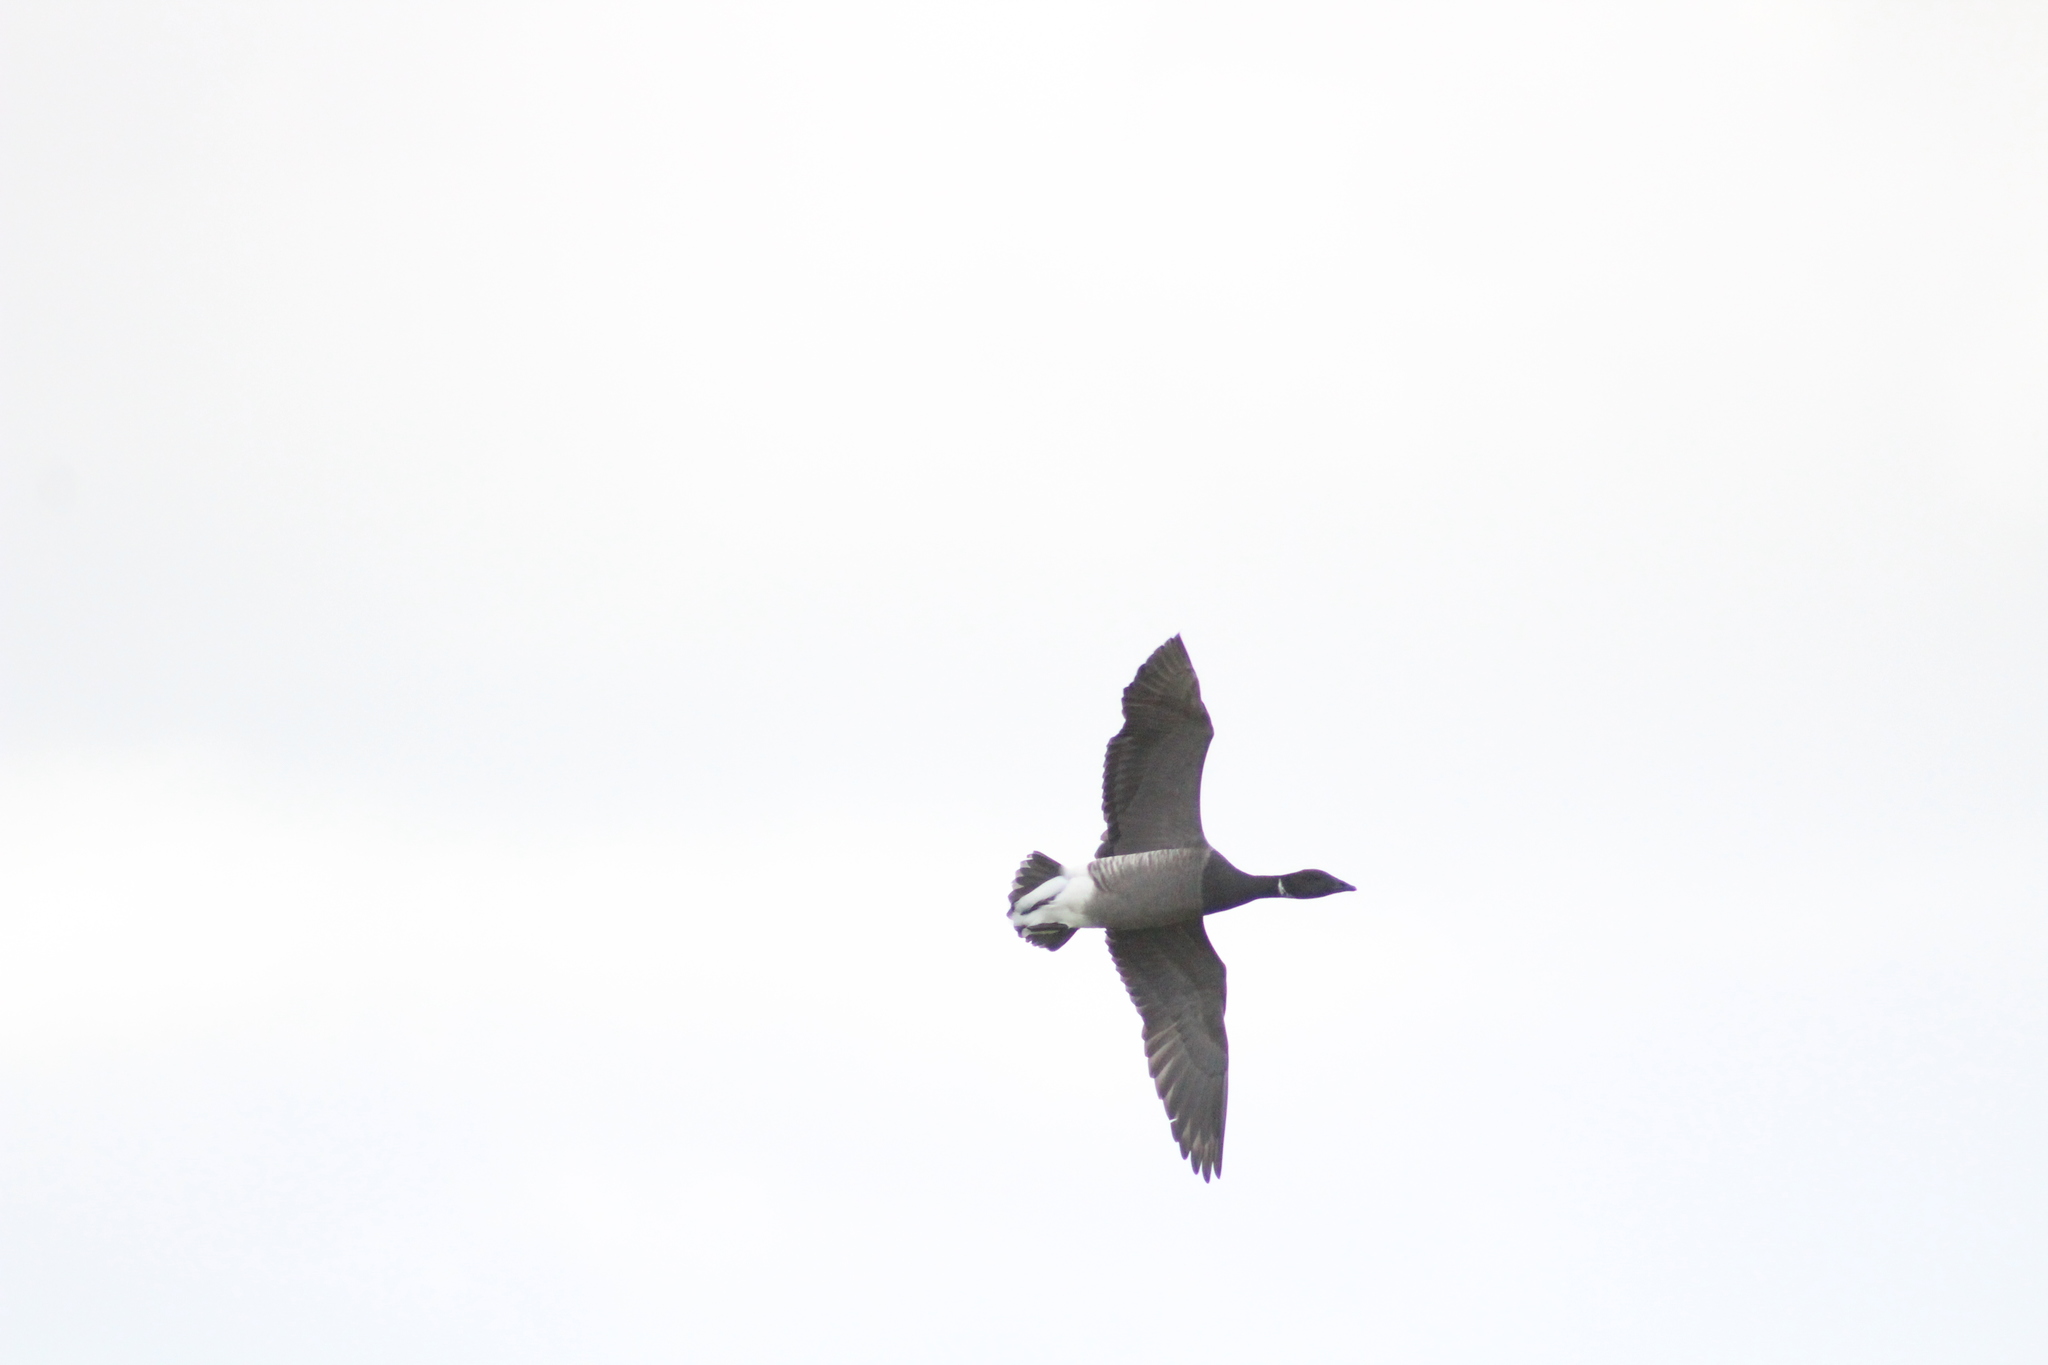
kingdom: Animalia
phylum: Chordata
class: Aves
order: Anseriformes
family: Anatidae
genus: Branta
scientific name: Branta bernicla
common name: Brant goose
